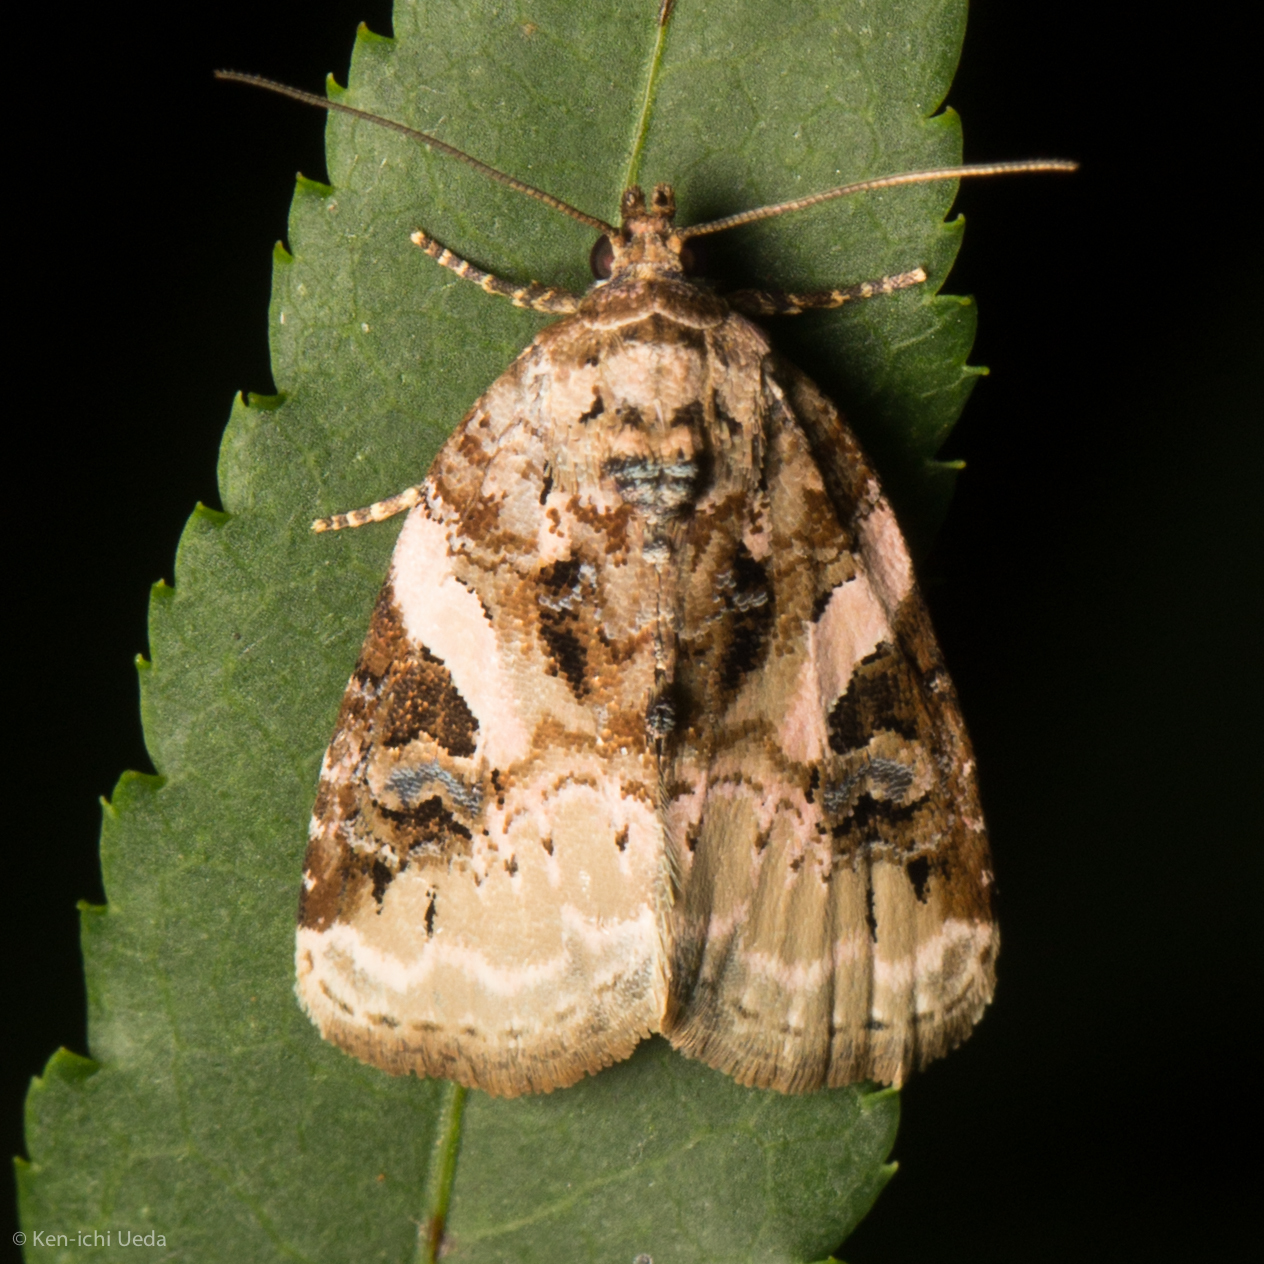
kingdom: Animalia
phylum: Arthropoda
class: Insecta
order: Lepidoptera
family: Noctuidae
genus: Pseudeustrotia
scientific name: Pseudeustrotia carneola
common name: Pink-barred lithacodia moth
